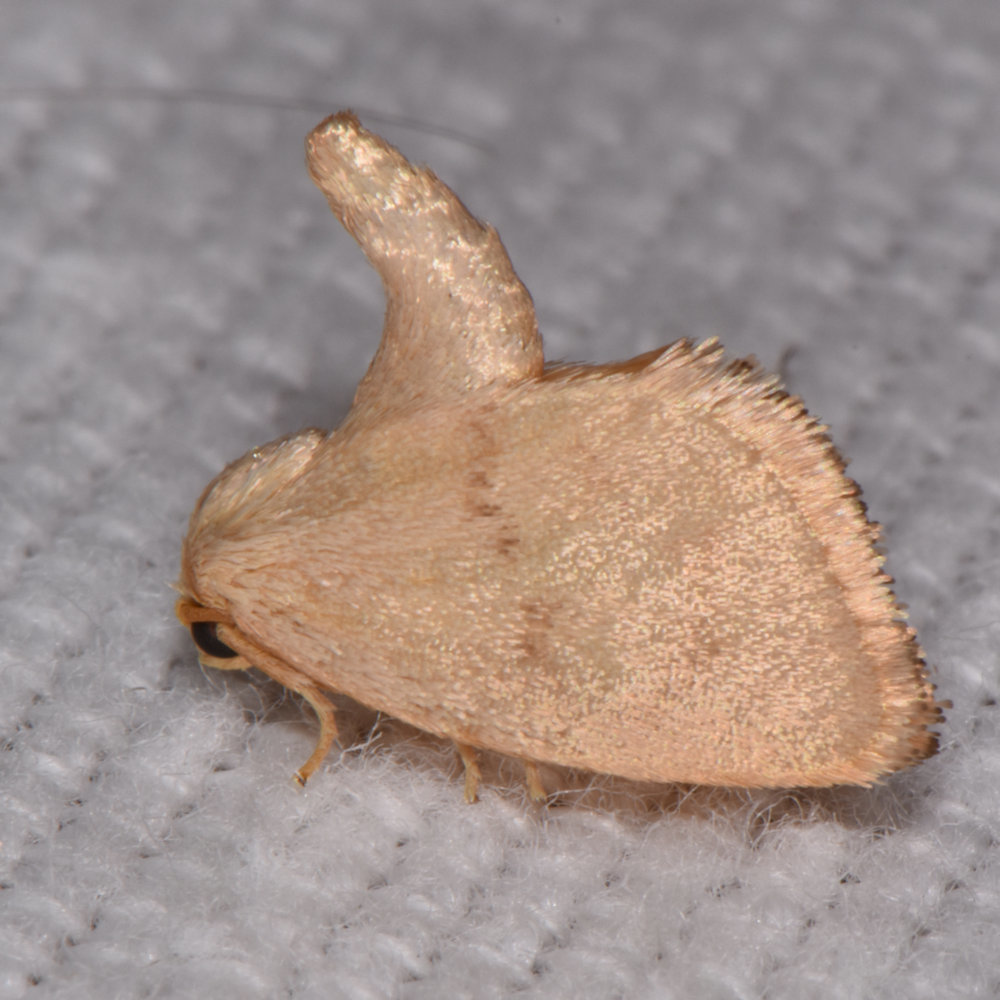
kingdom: Animalia
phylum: Arthropoda
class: Insecta
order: Lepidoptera
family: Limacodidae
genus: Tortricidia
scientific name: Tortricidia pallida
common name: Red-crossed button slug moth
